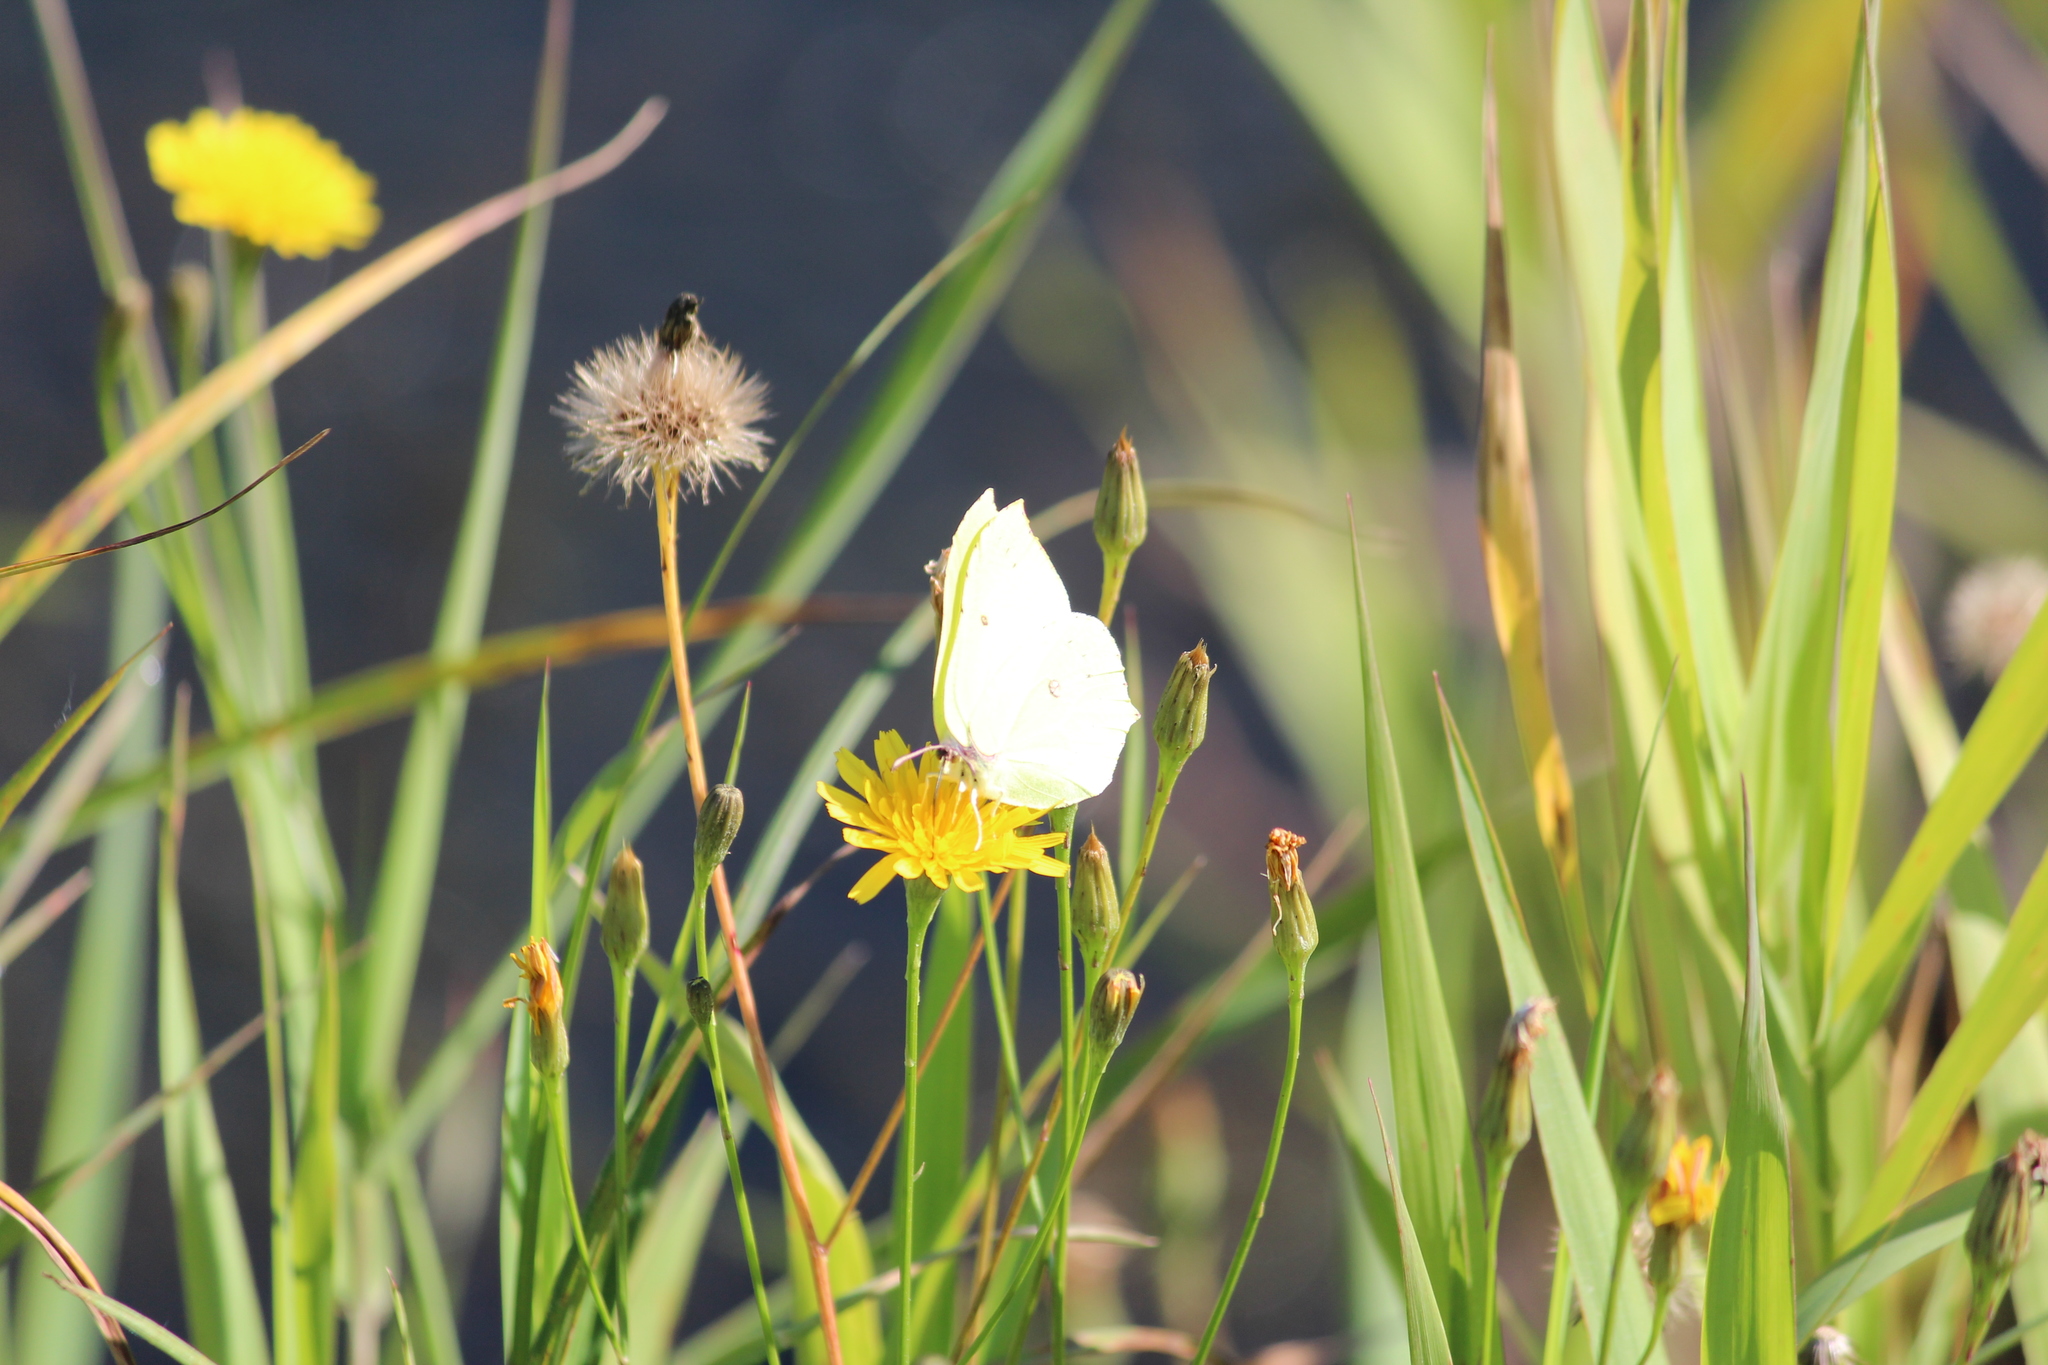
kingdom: Animalia
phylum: Arthropoda
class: Insecta
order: Lepidoptera
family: Pieridae
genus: Gonepteryx
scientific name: Gonepteryx rhamni
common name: Brimstone
